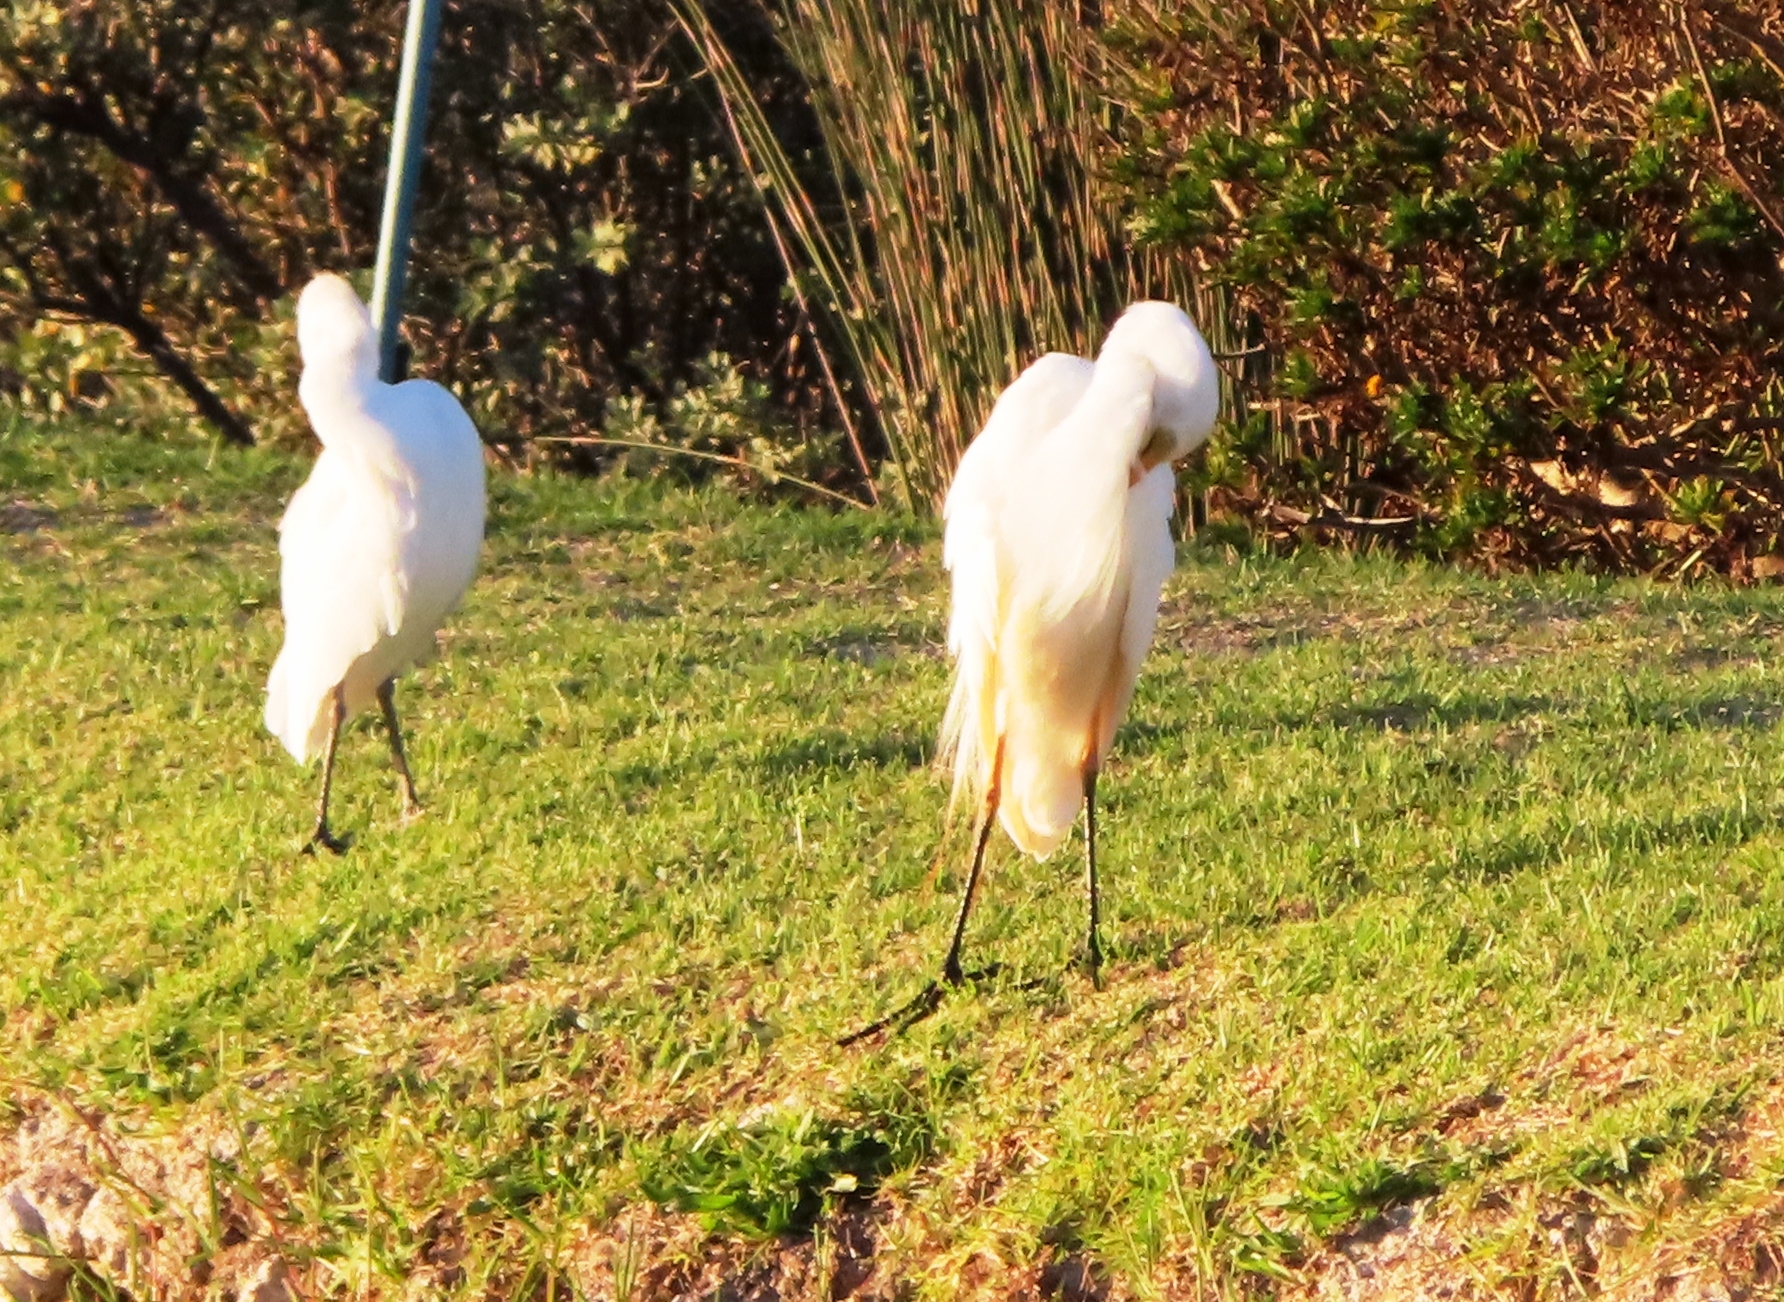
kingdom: Animalia
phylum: Chordata
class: Aves
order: Pelecaniformes
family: Ardeidae
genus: Bubulcus
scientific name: Bubulcus ibis
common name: Cattle egret
